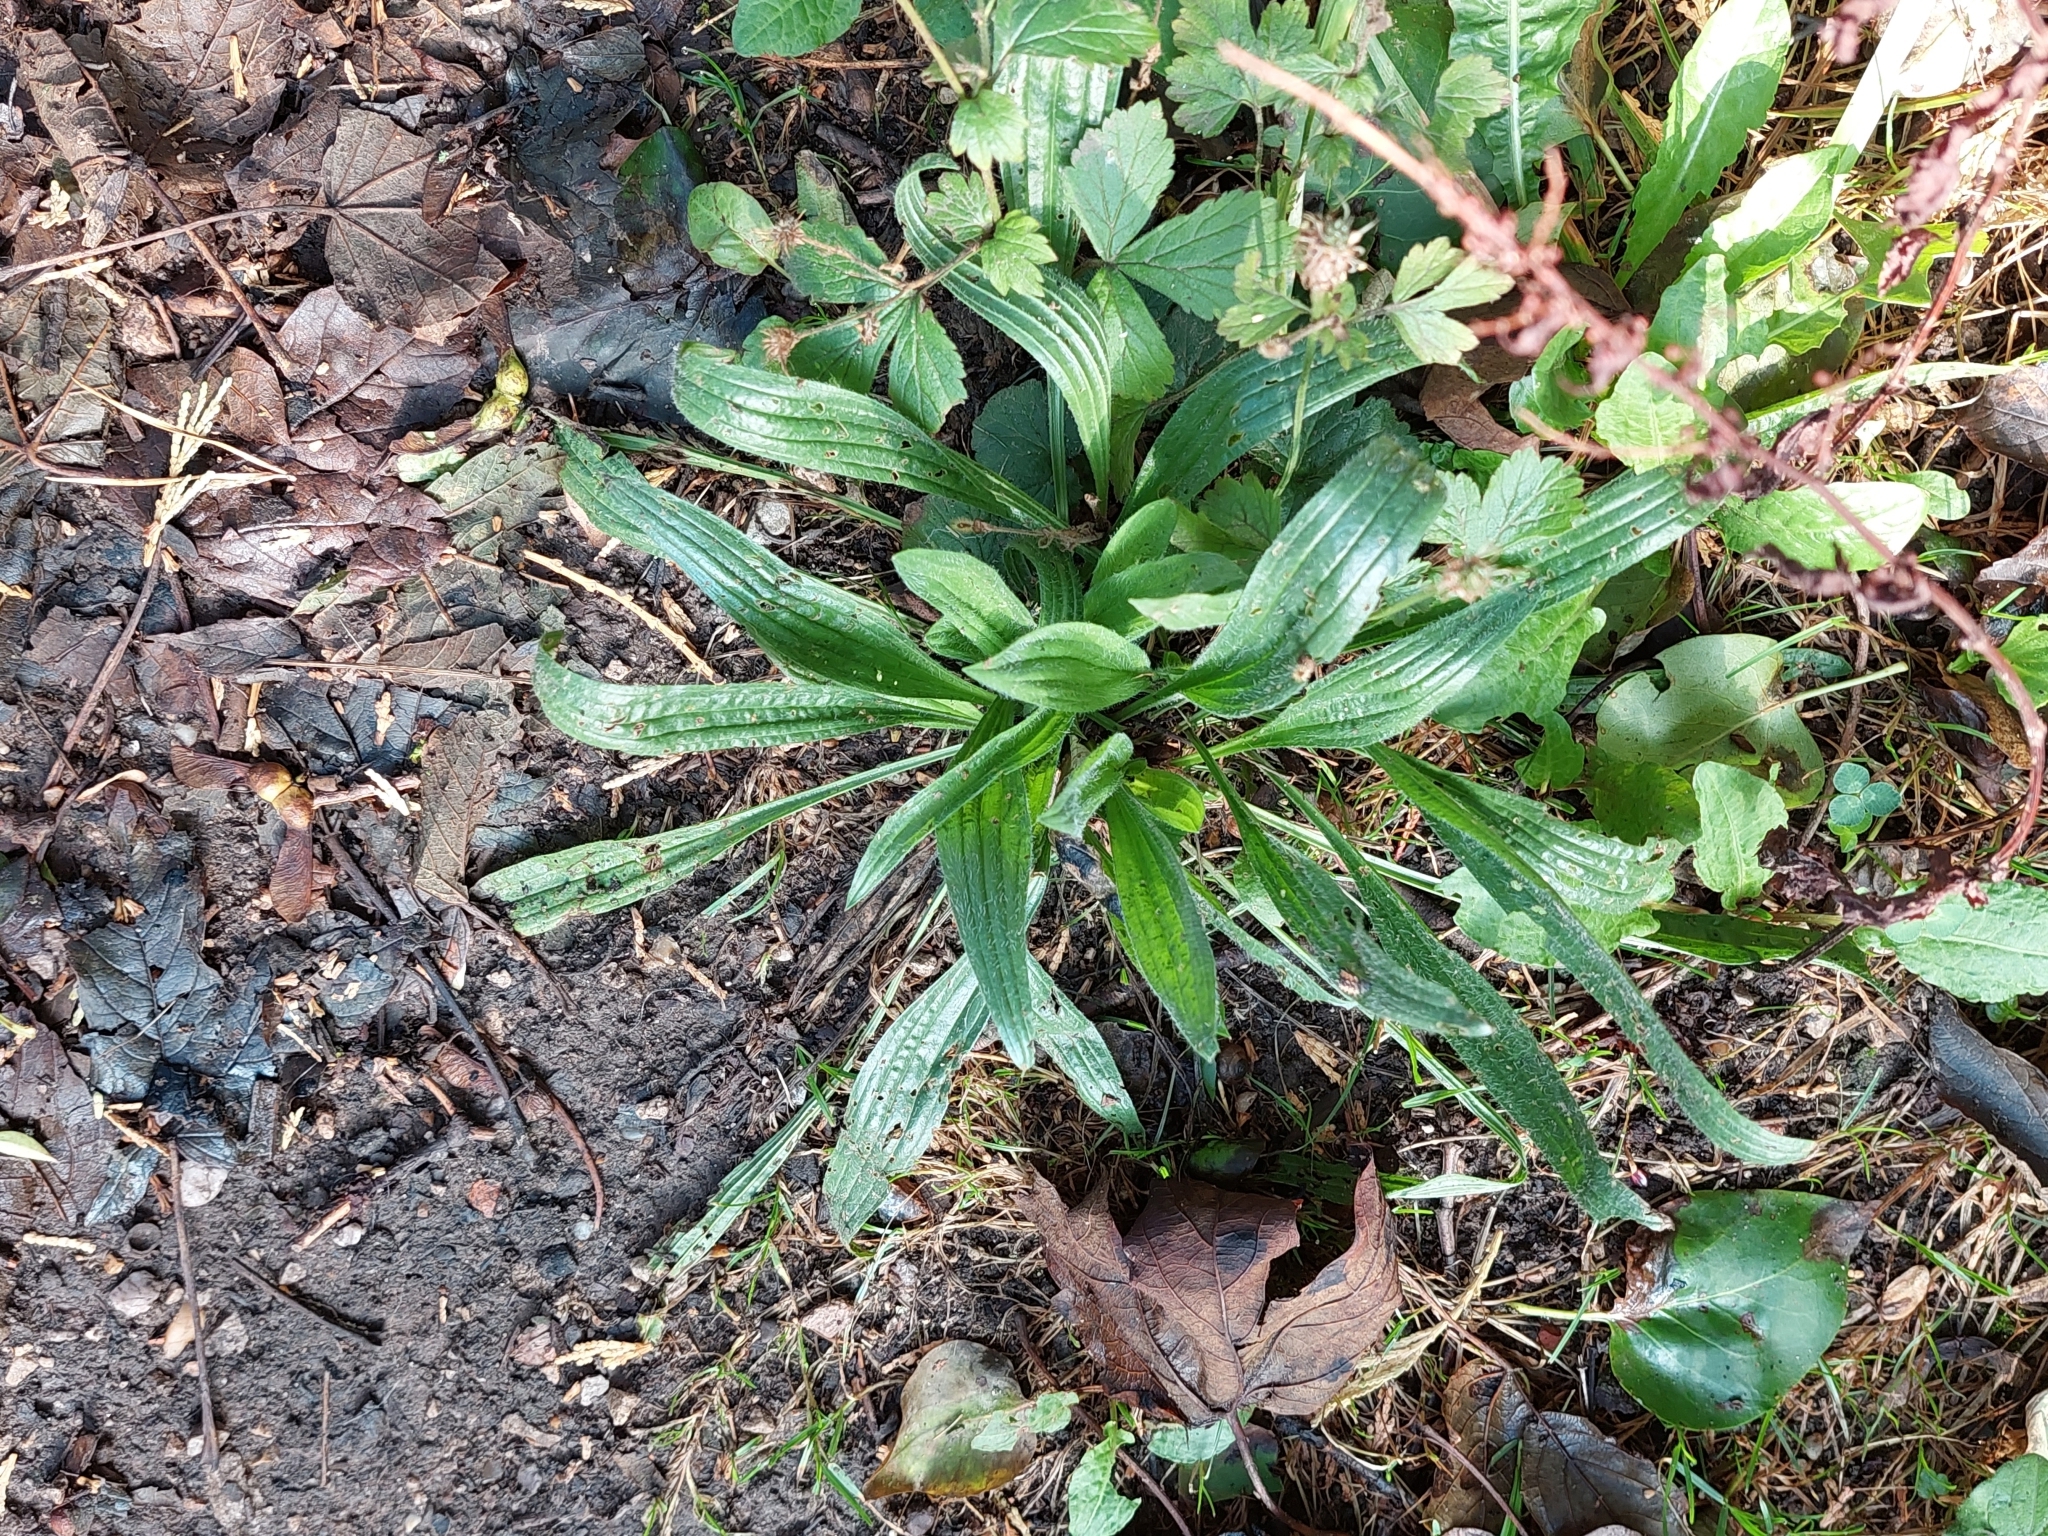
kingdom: Plantae
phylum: Tracheophyta
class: Magnoliopsida
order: Lamiales
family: Plantaginaceae
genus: Plantago
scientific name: Plantago lanceolata
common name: Ribwort plantain
